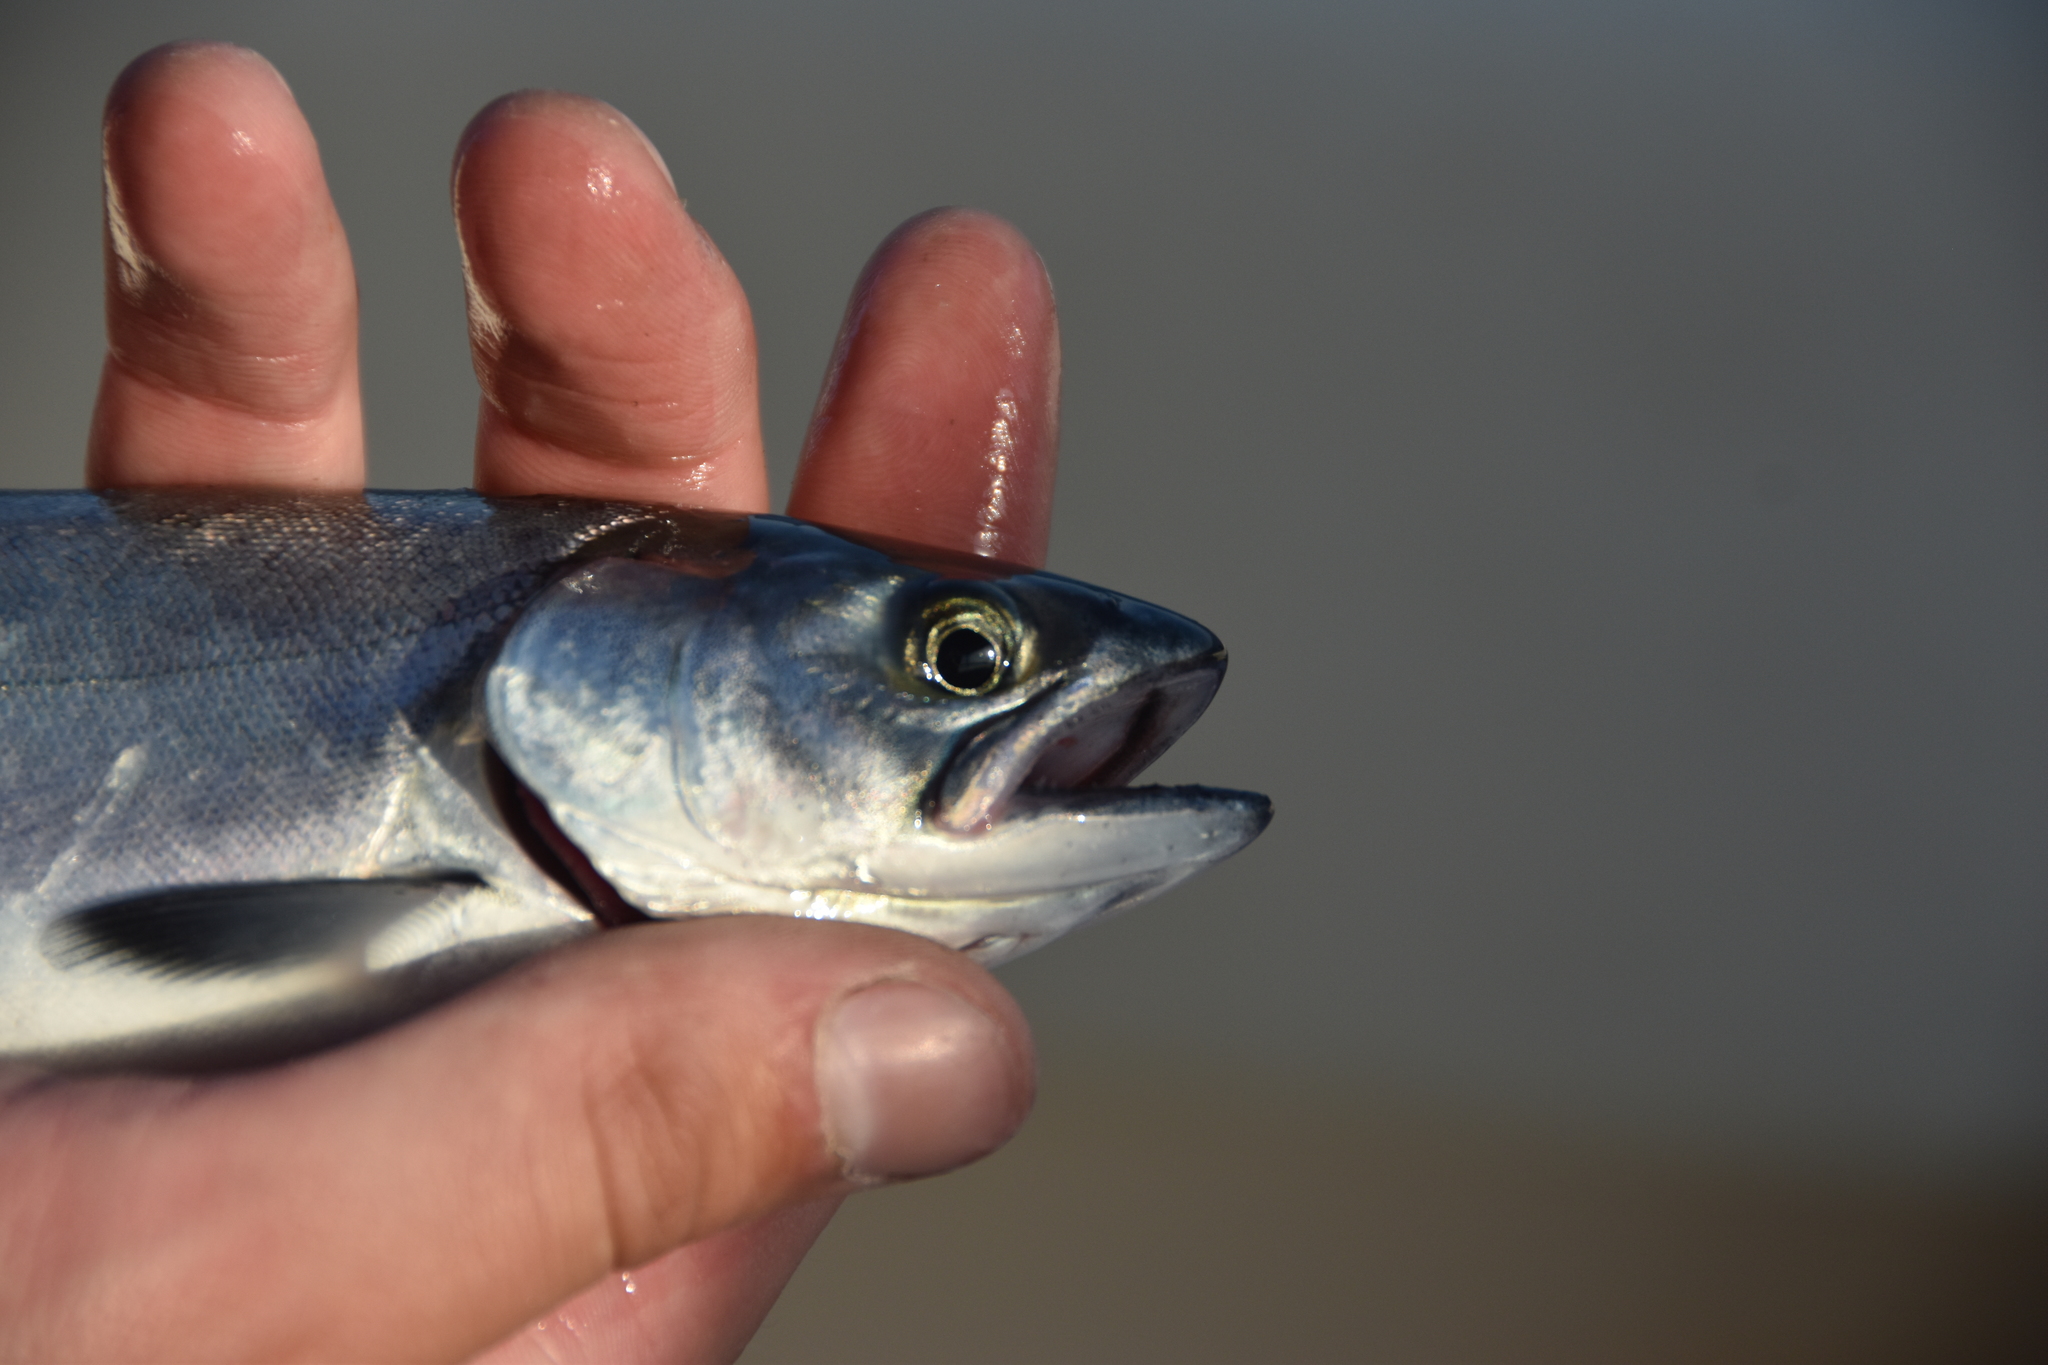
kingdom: Animalia
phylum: Chordata
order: Salmoniformes
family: Salmonidae
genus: Oncorhynchus
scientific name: Oncorhynchus tshawytscha
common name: Chinook salmon
